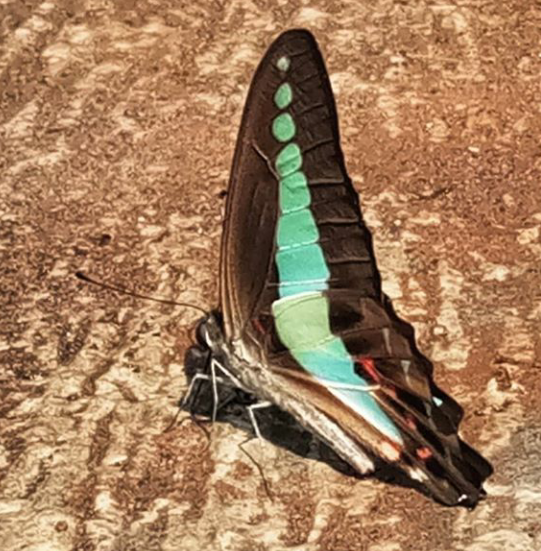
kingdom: Fungi
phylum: Ascomycota
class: Sordariomycetes
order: Microascales
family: Microascaceae
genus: Graphium
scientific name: Graphium sarpedon
